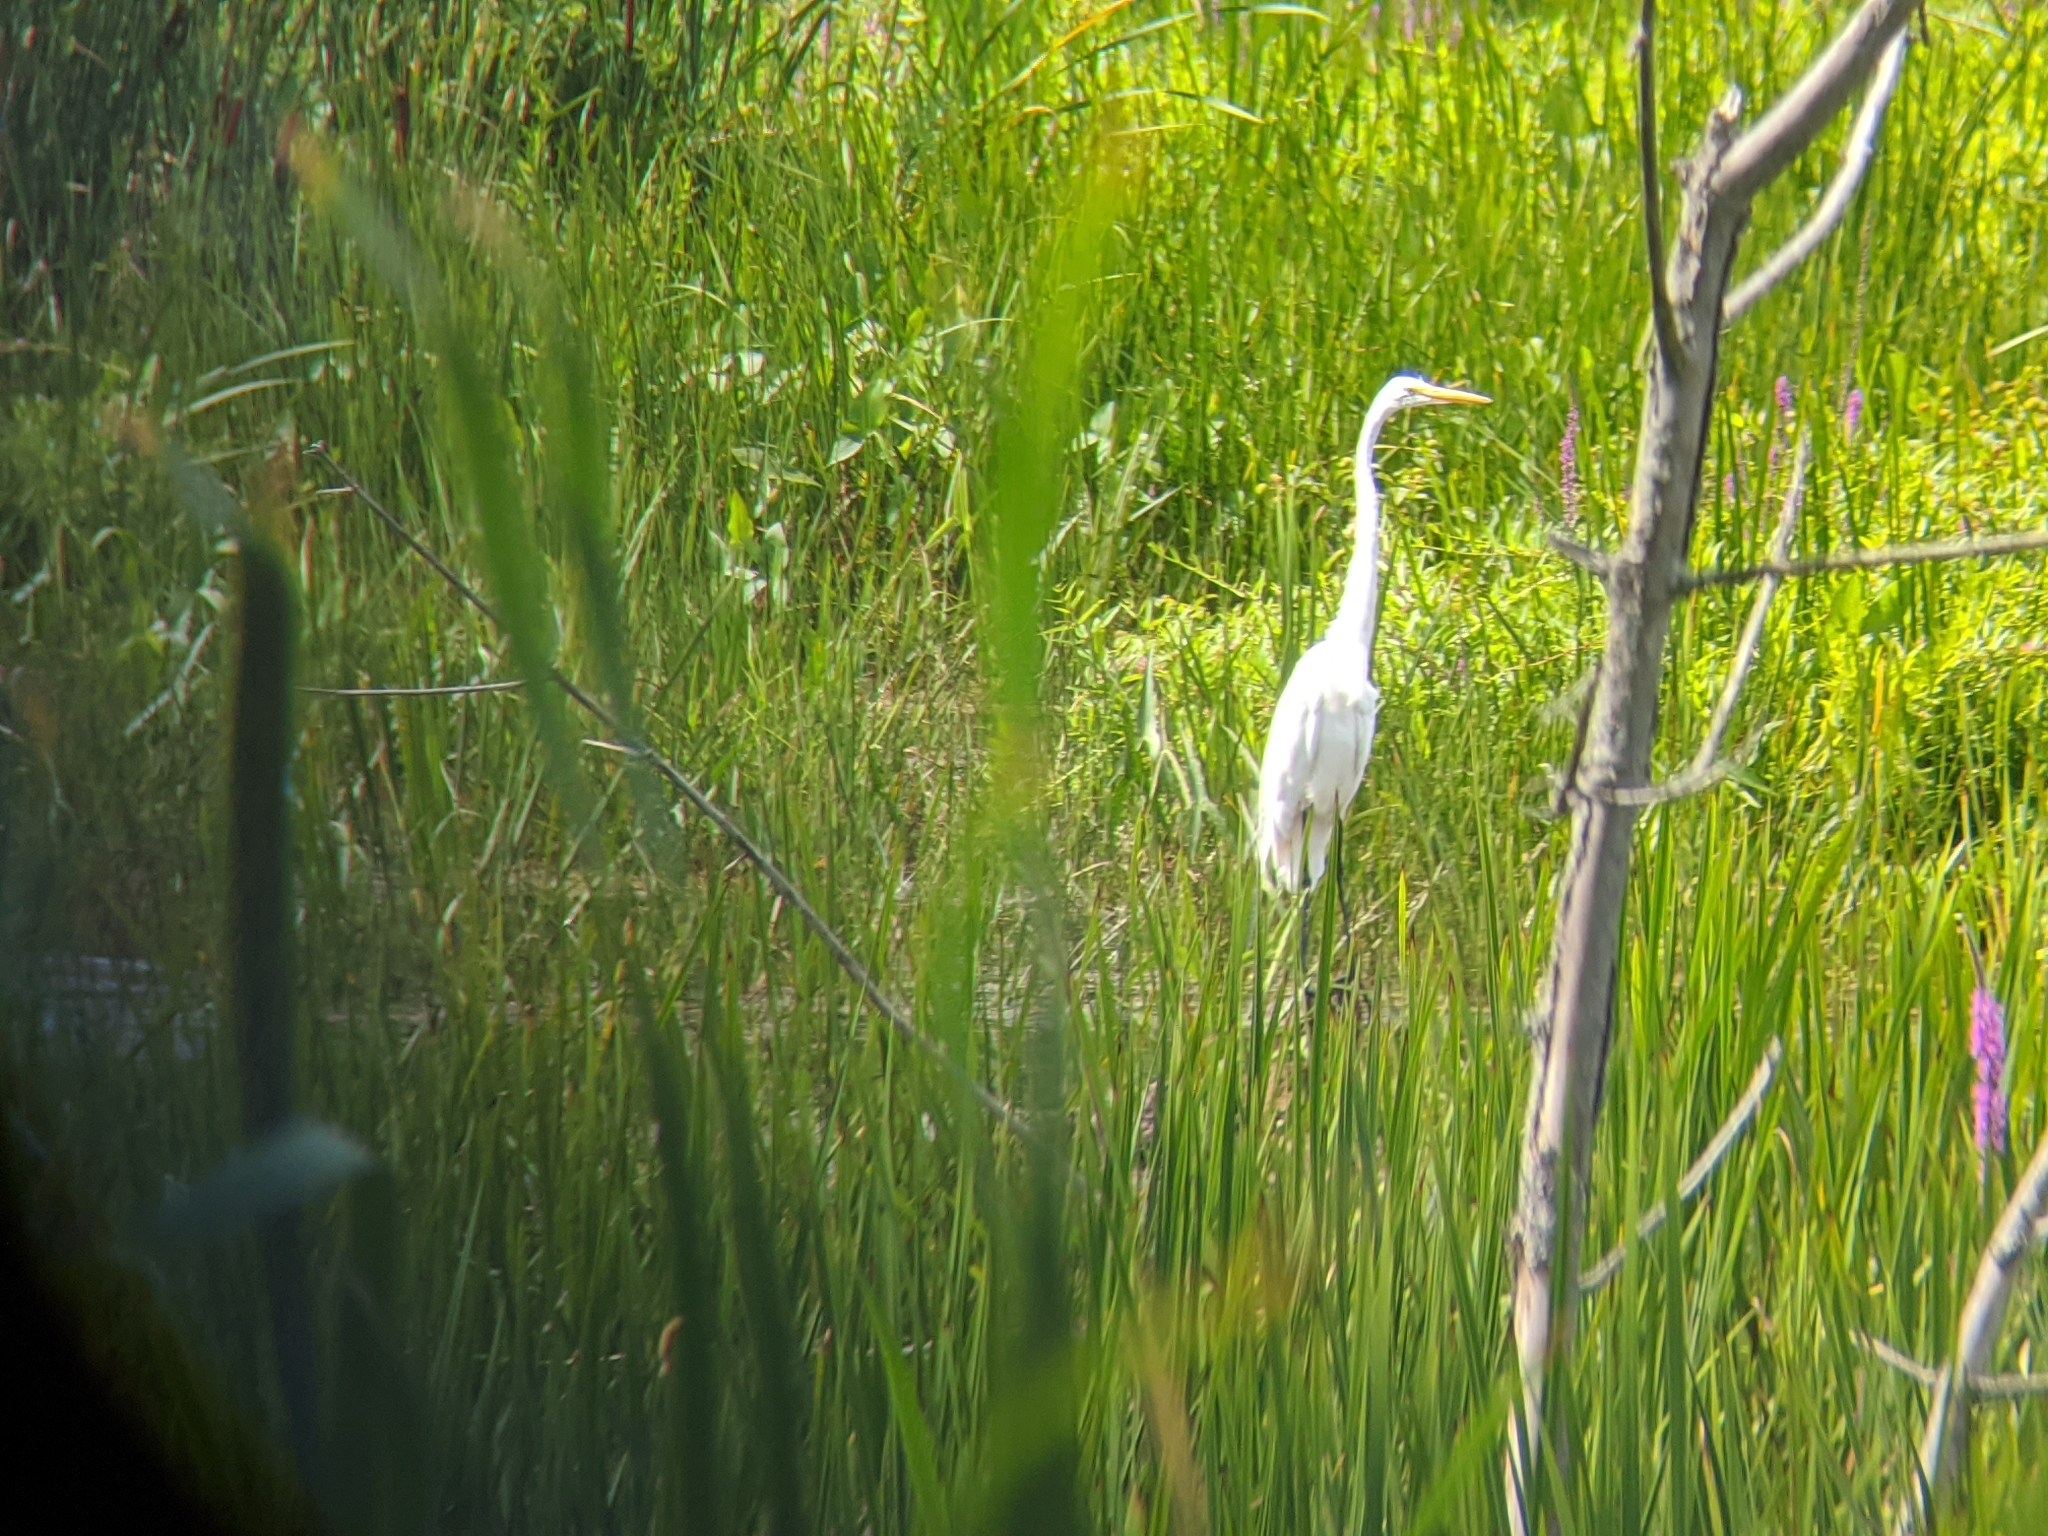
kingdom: Animalia
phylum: Chordata
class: Aves
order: Pelecaniformes
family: Ardeidae
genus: Ardea
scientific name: Ardea alba
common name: Great egret
